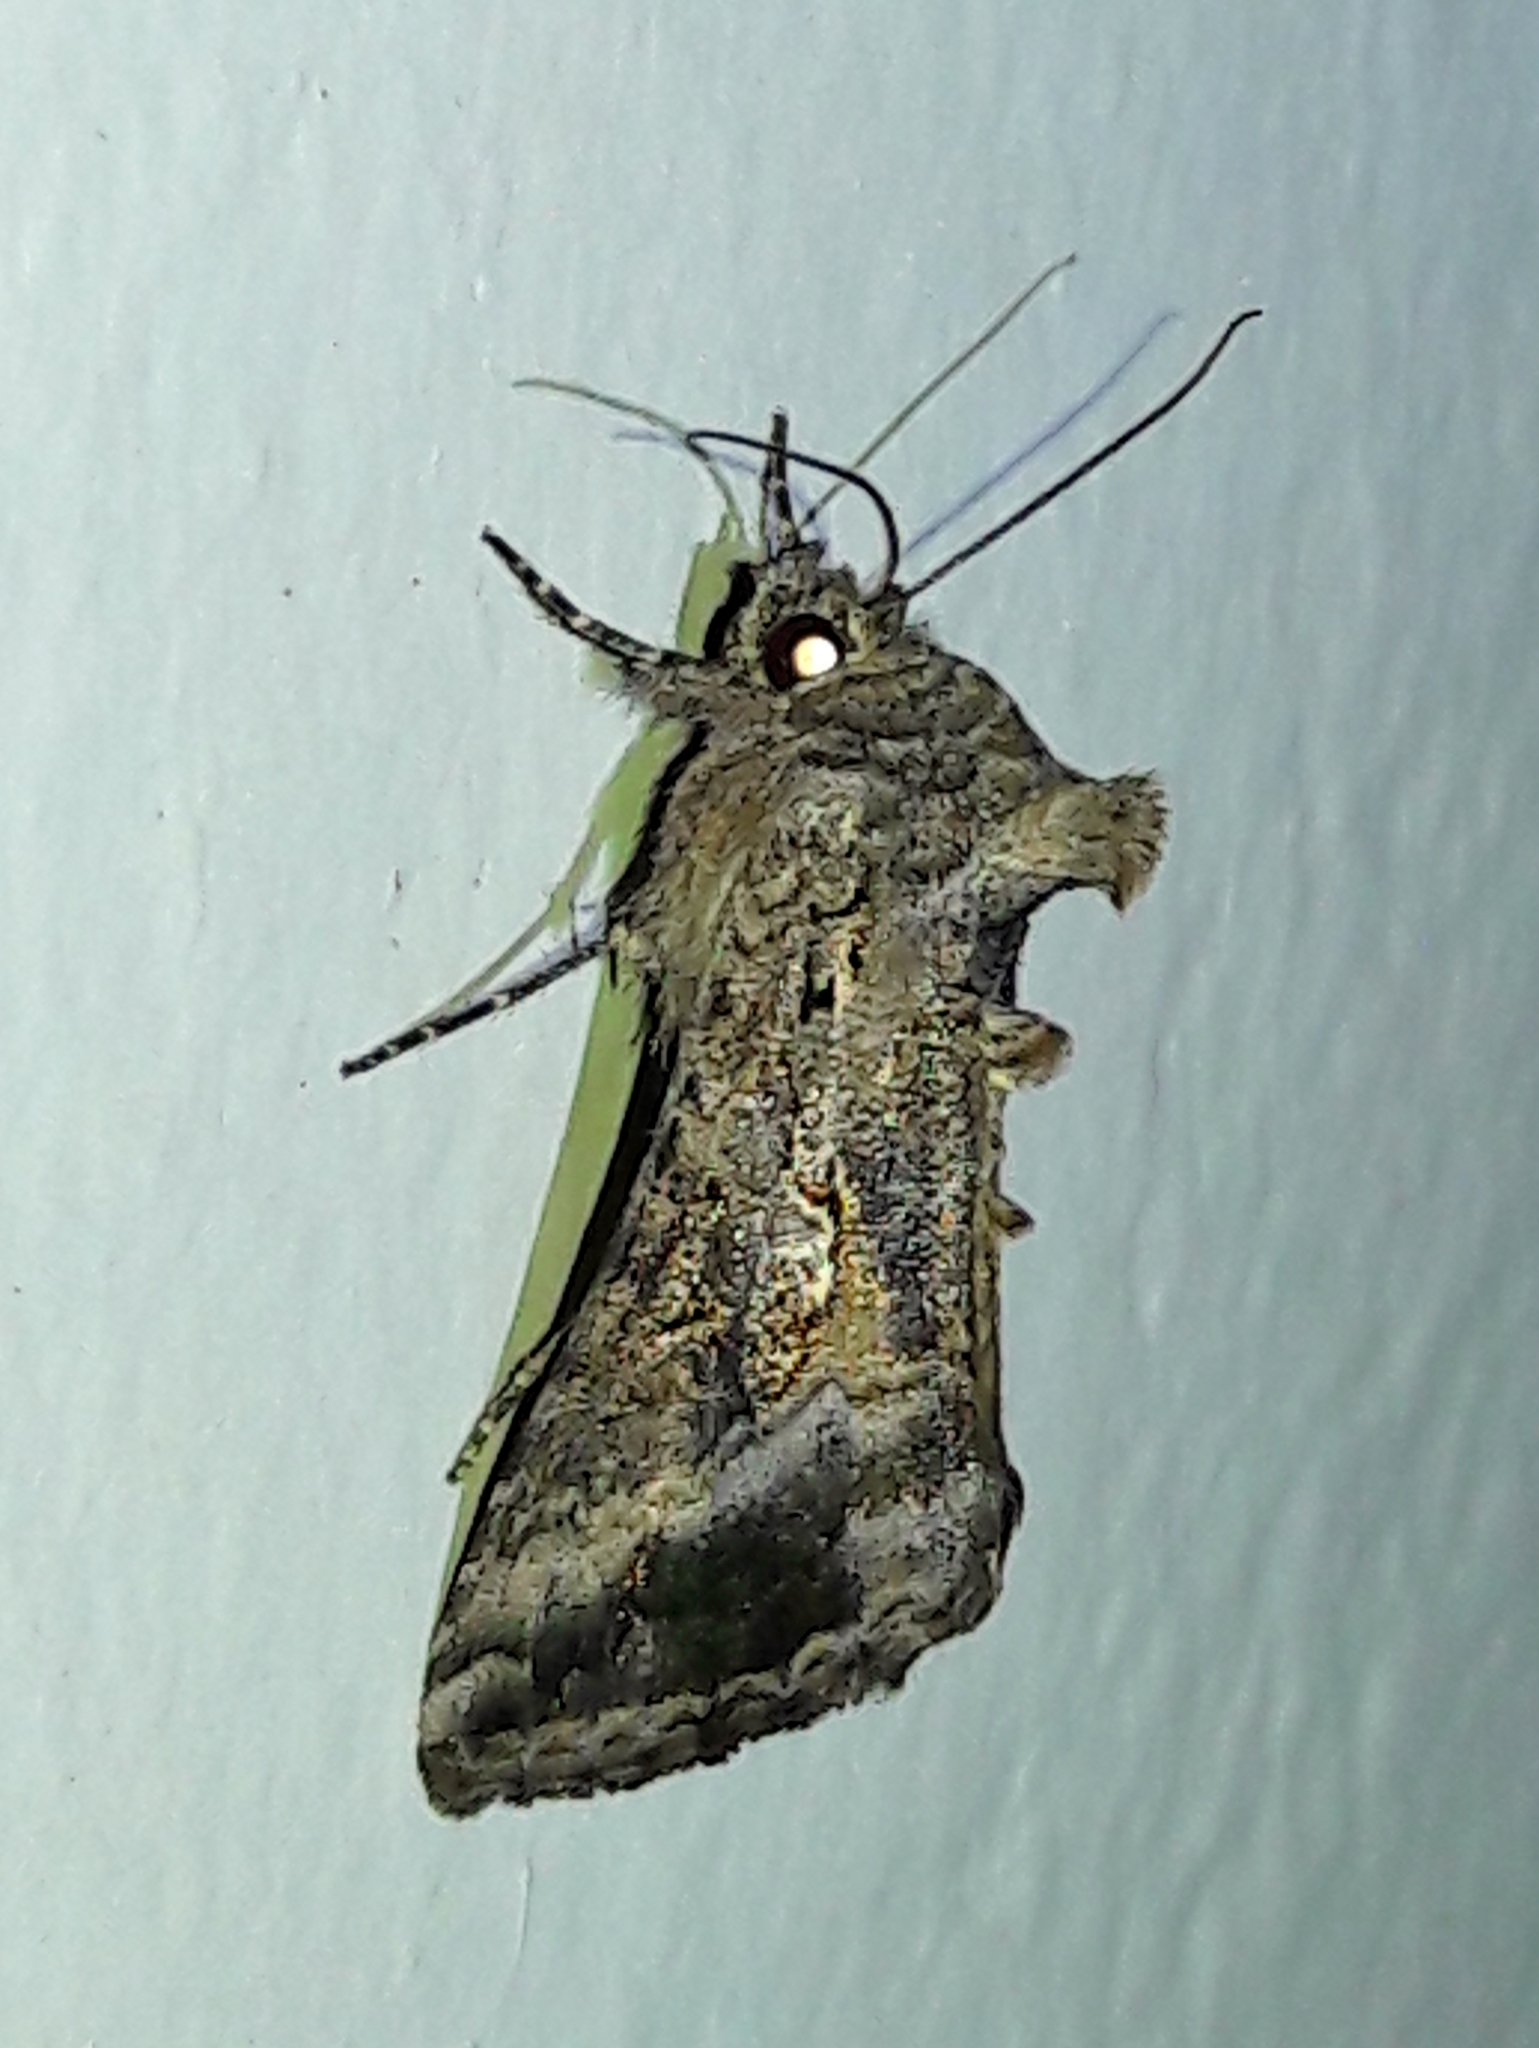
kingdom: Animalia
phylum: Arthropoda
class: Insecta
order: Lepidoptera
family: Noctuidae
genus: Rachiplusia
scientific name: Rachiplusia ou
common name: Gray looper moth
